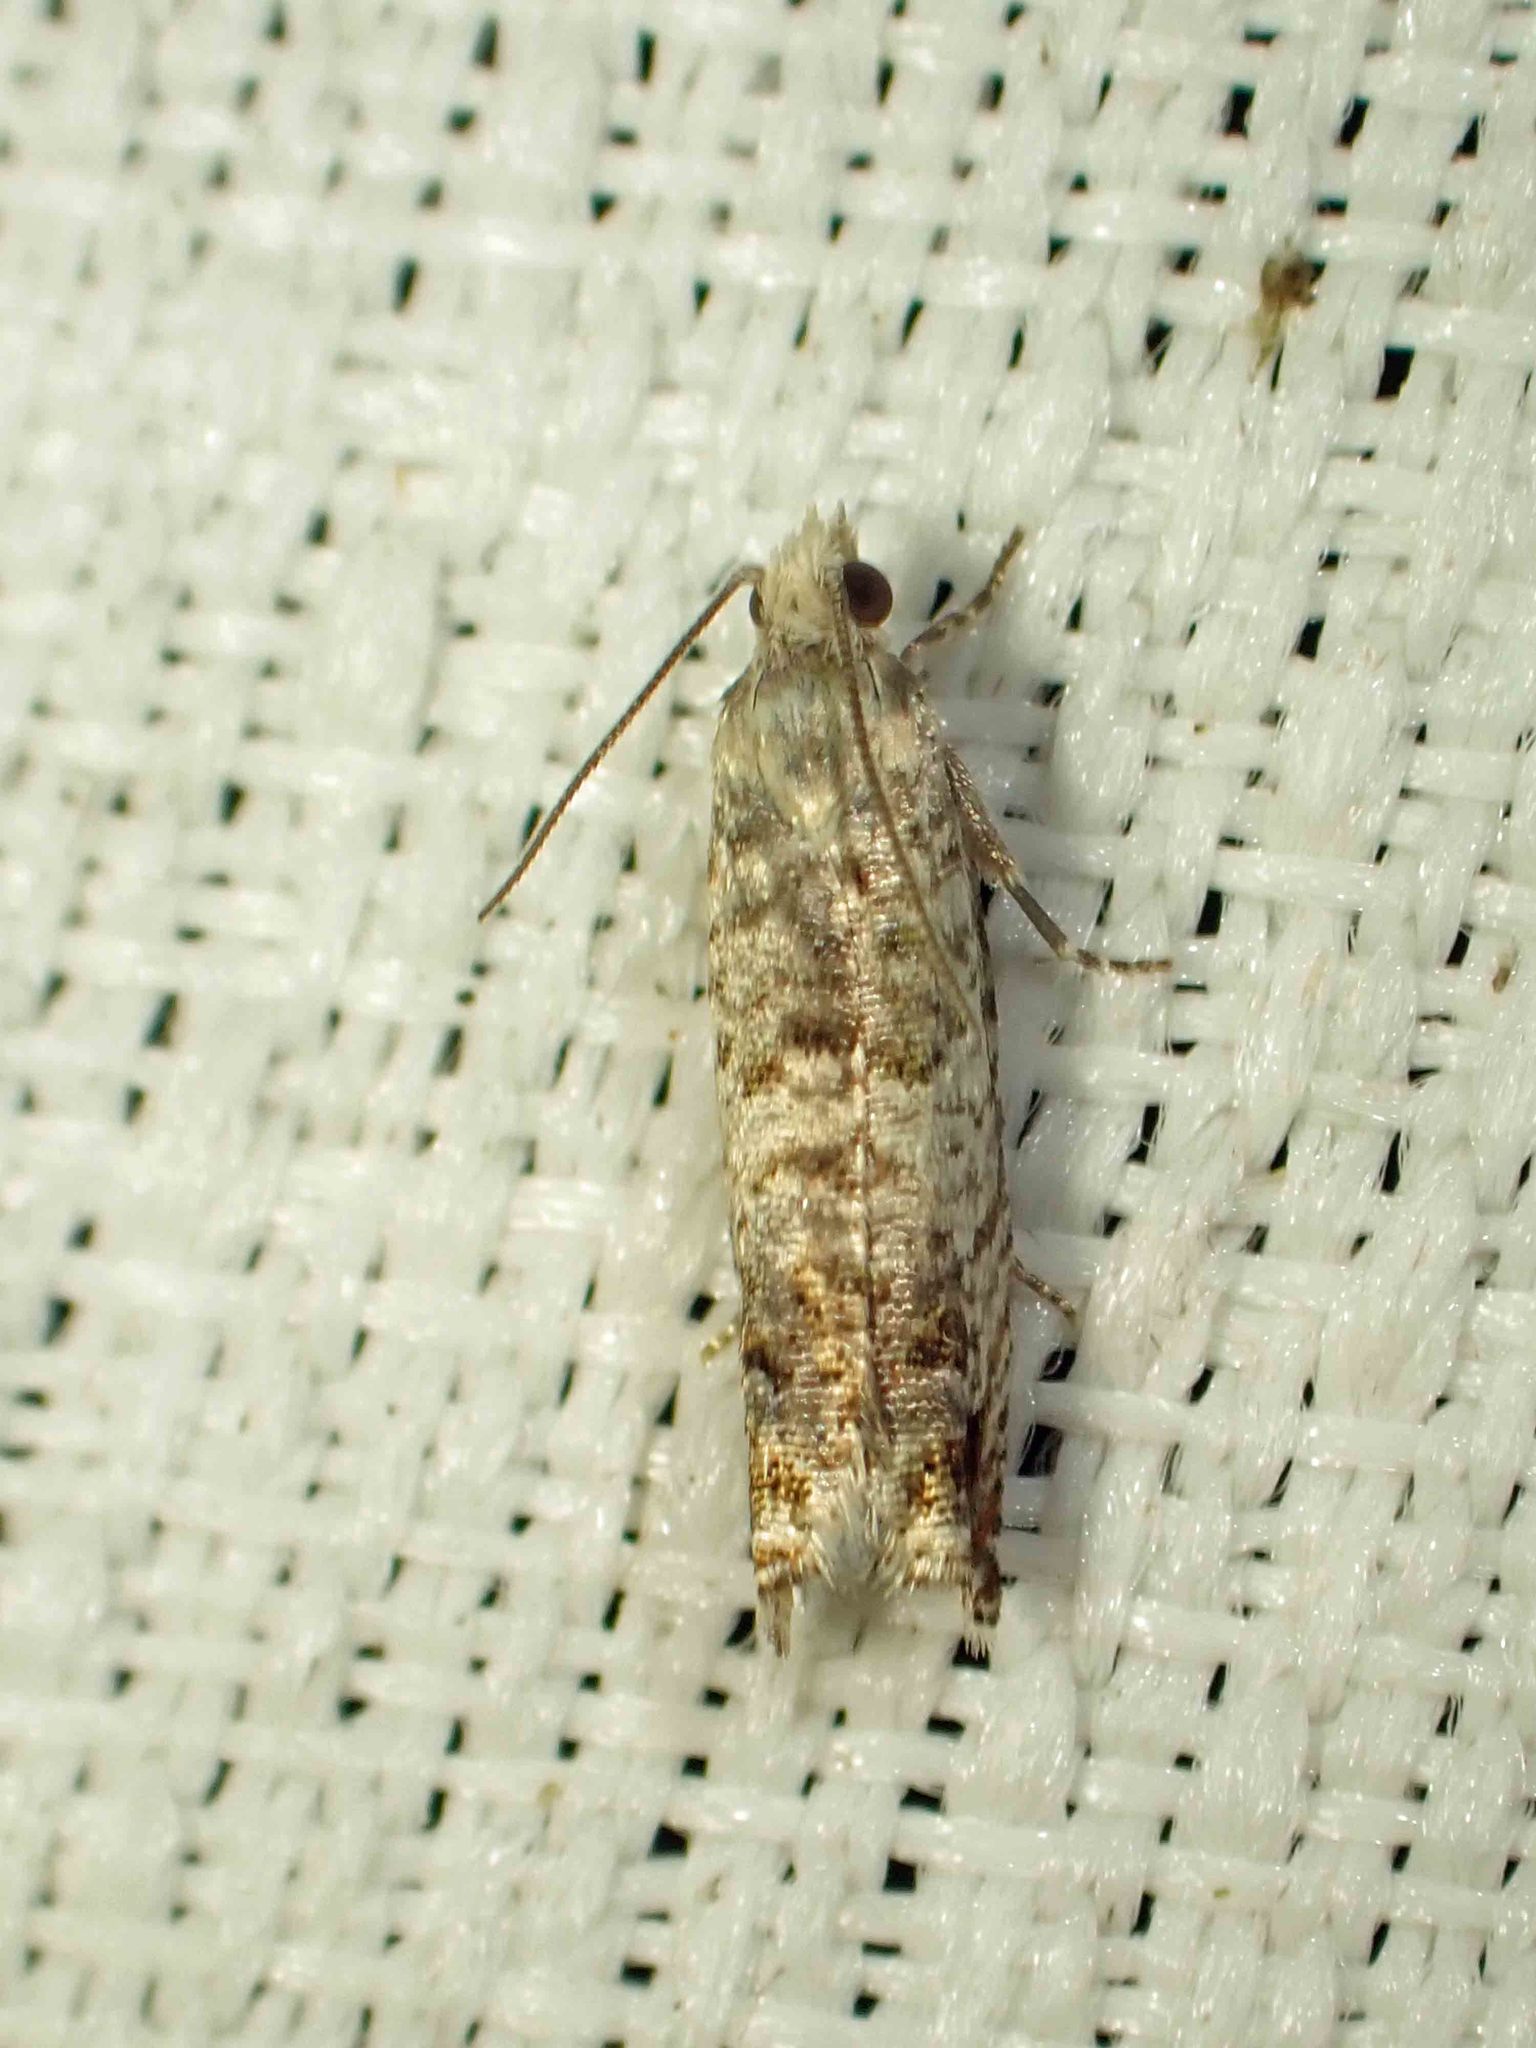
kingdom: Animalia
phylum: Arthropoda
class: Insecta
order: Lepidoptera
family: Tortricidae
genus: Epinotia
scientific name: Epinotia rectiplicana
